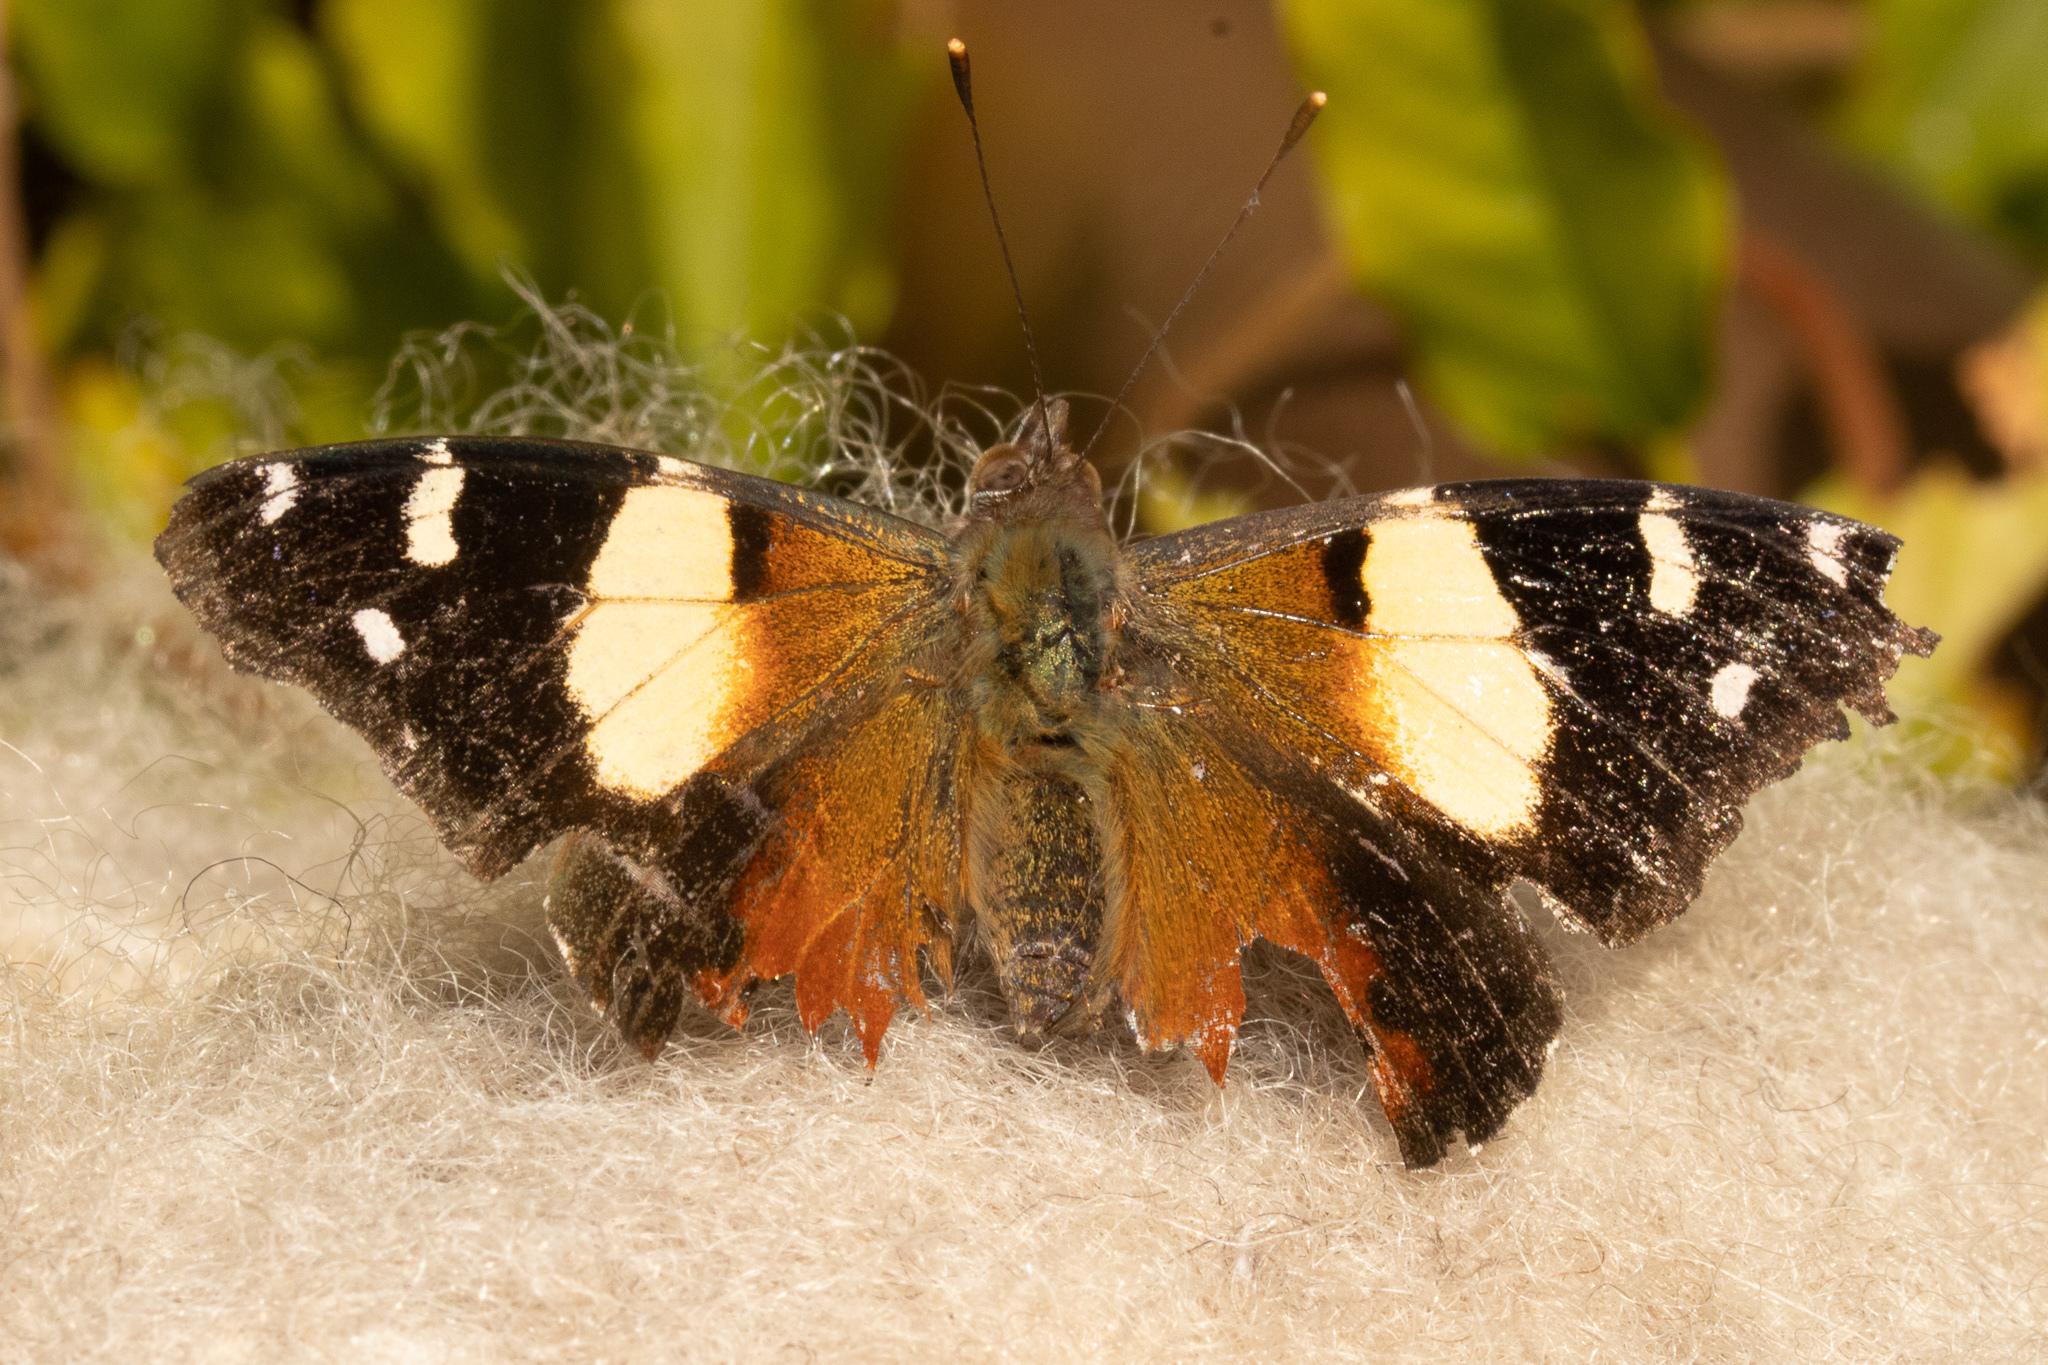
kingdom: Animalia
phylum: Arthropoda
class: Insecta
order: Lepidoptera
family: Nymphalidae
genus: Vanessa
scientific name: Vanessa itea
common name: Yellow admiral
